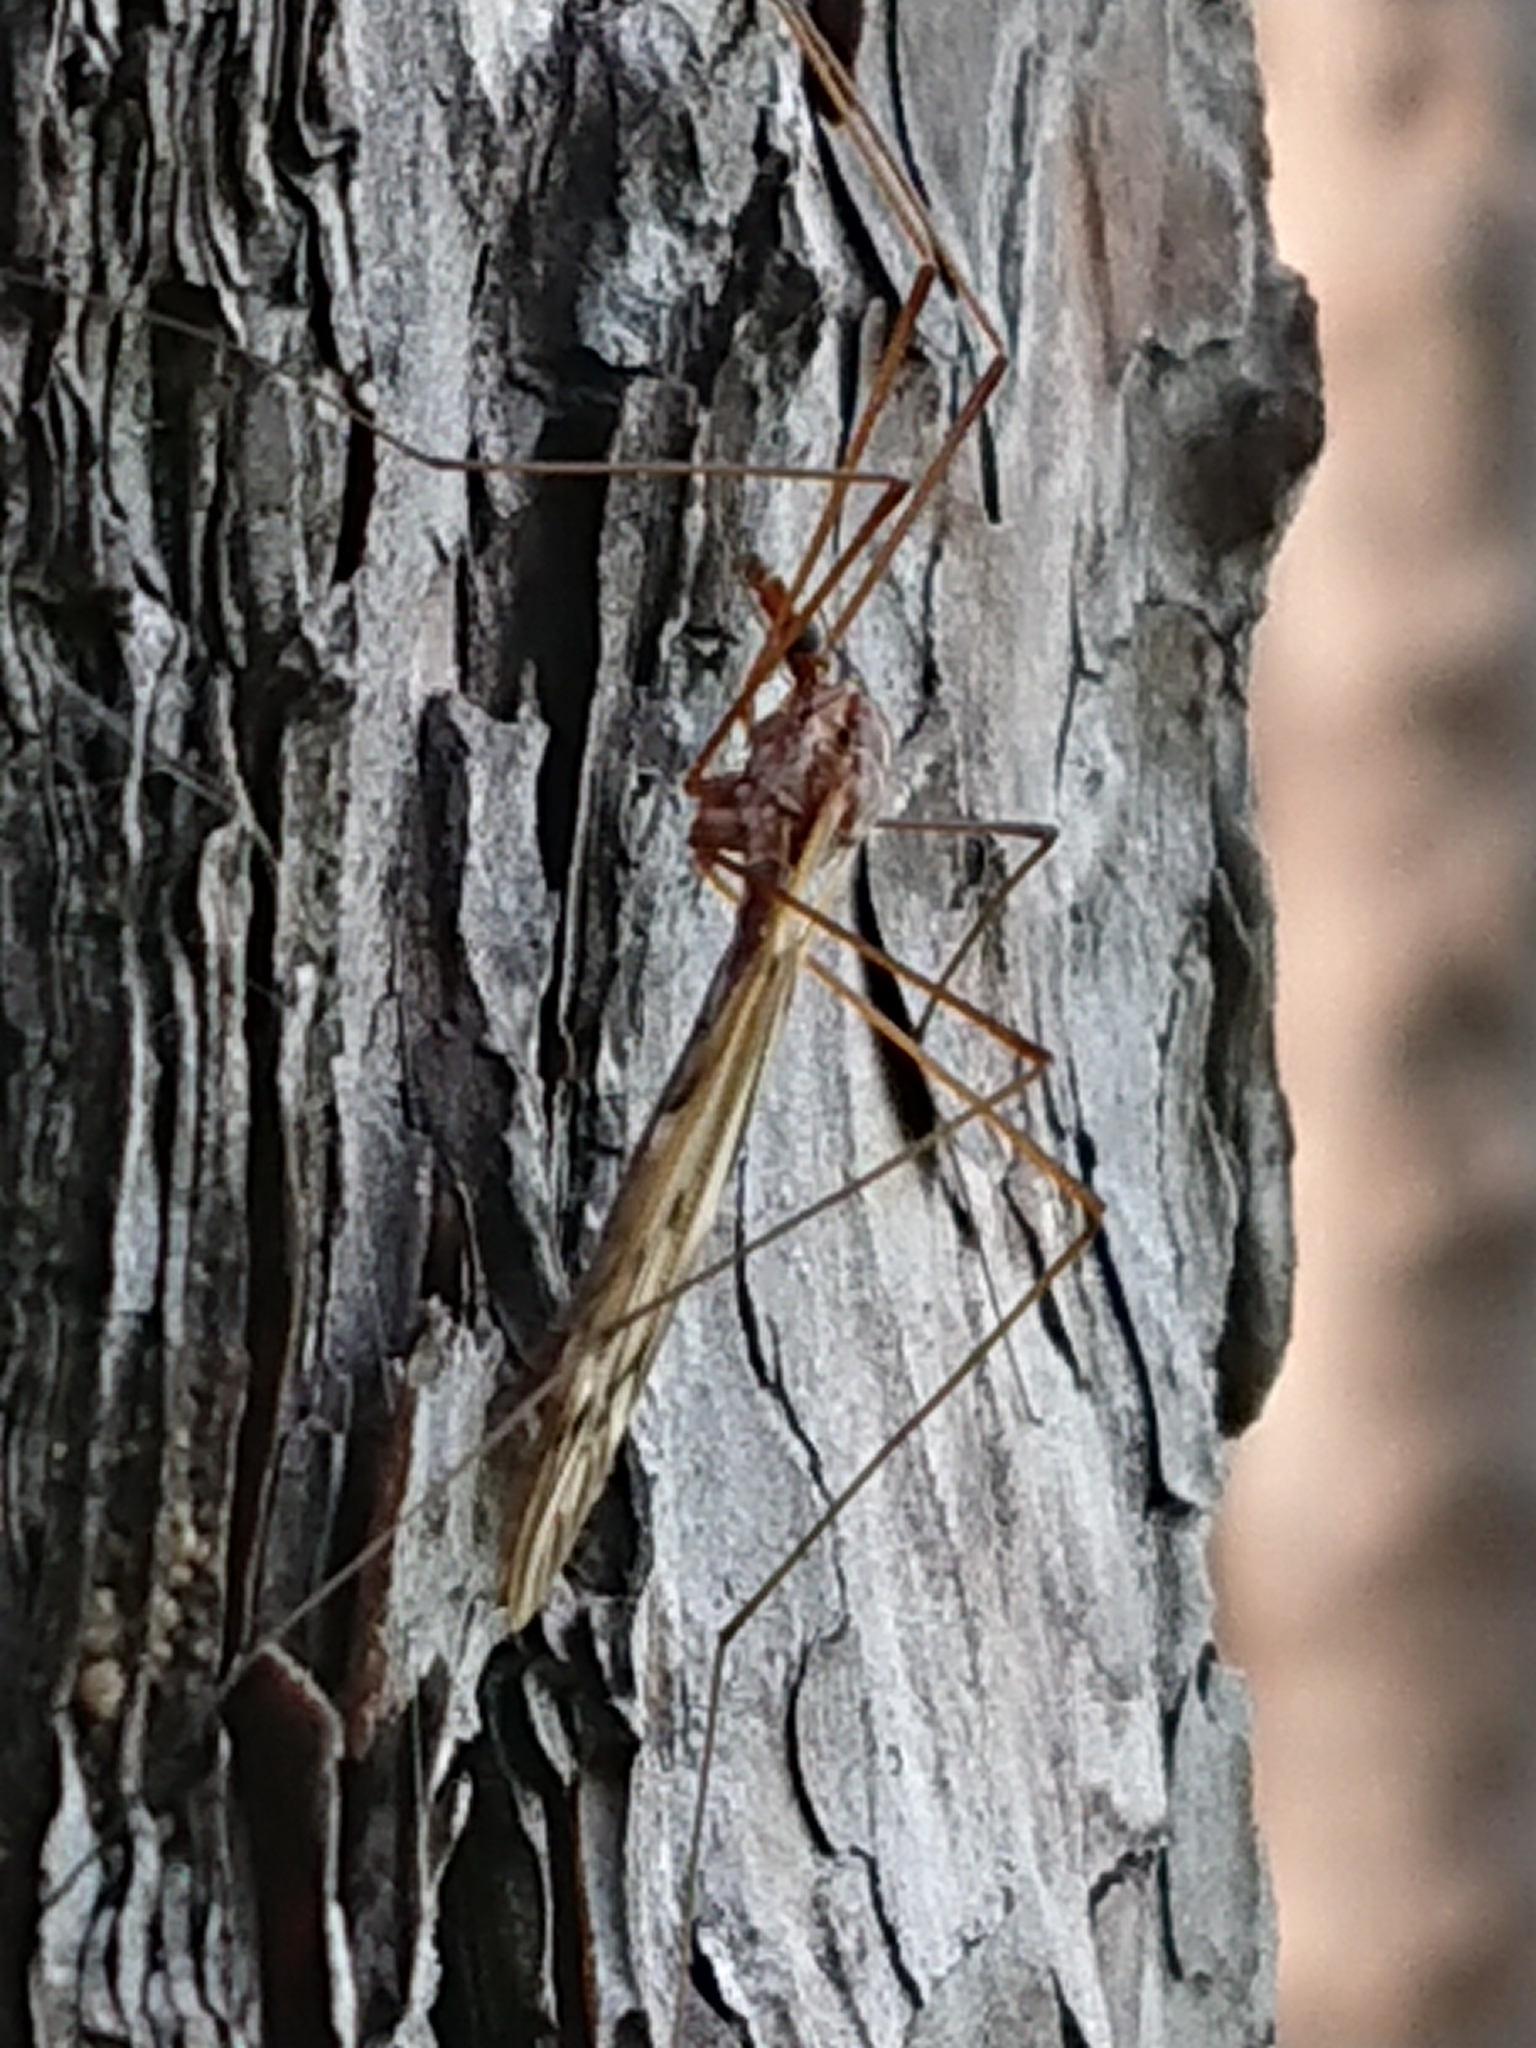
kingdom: Animalia
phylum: Arthropoda
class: Insecta
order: Diptera
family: Tipulidae
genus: Zelandotipula
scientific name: Zelandotipula novarae
